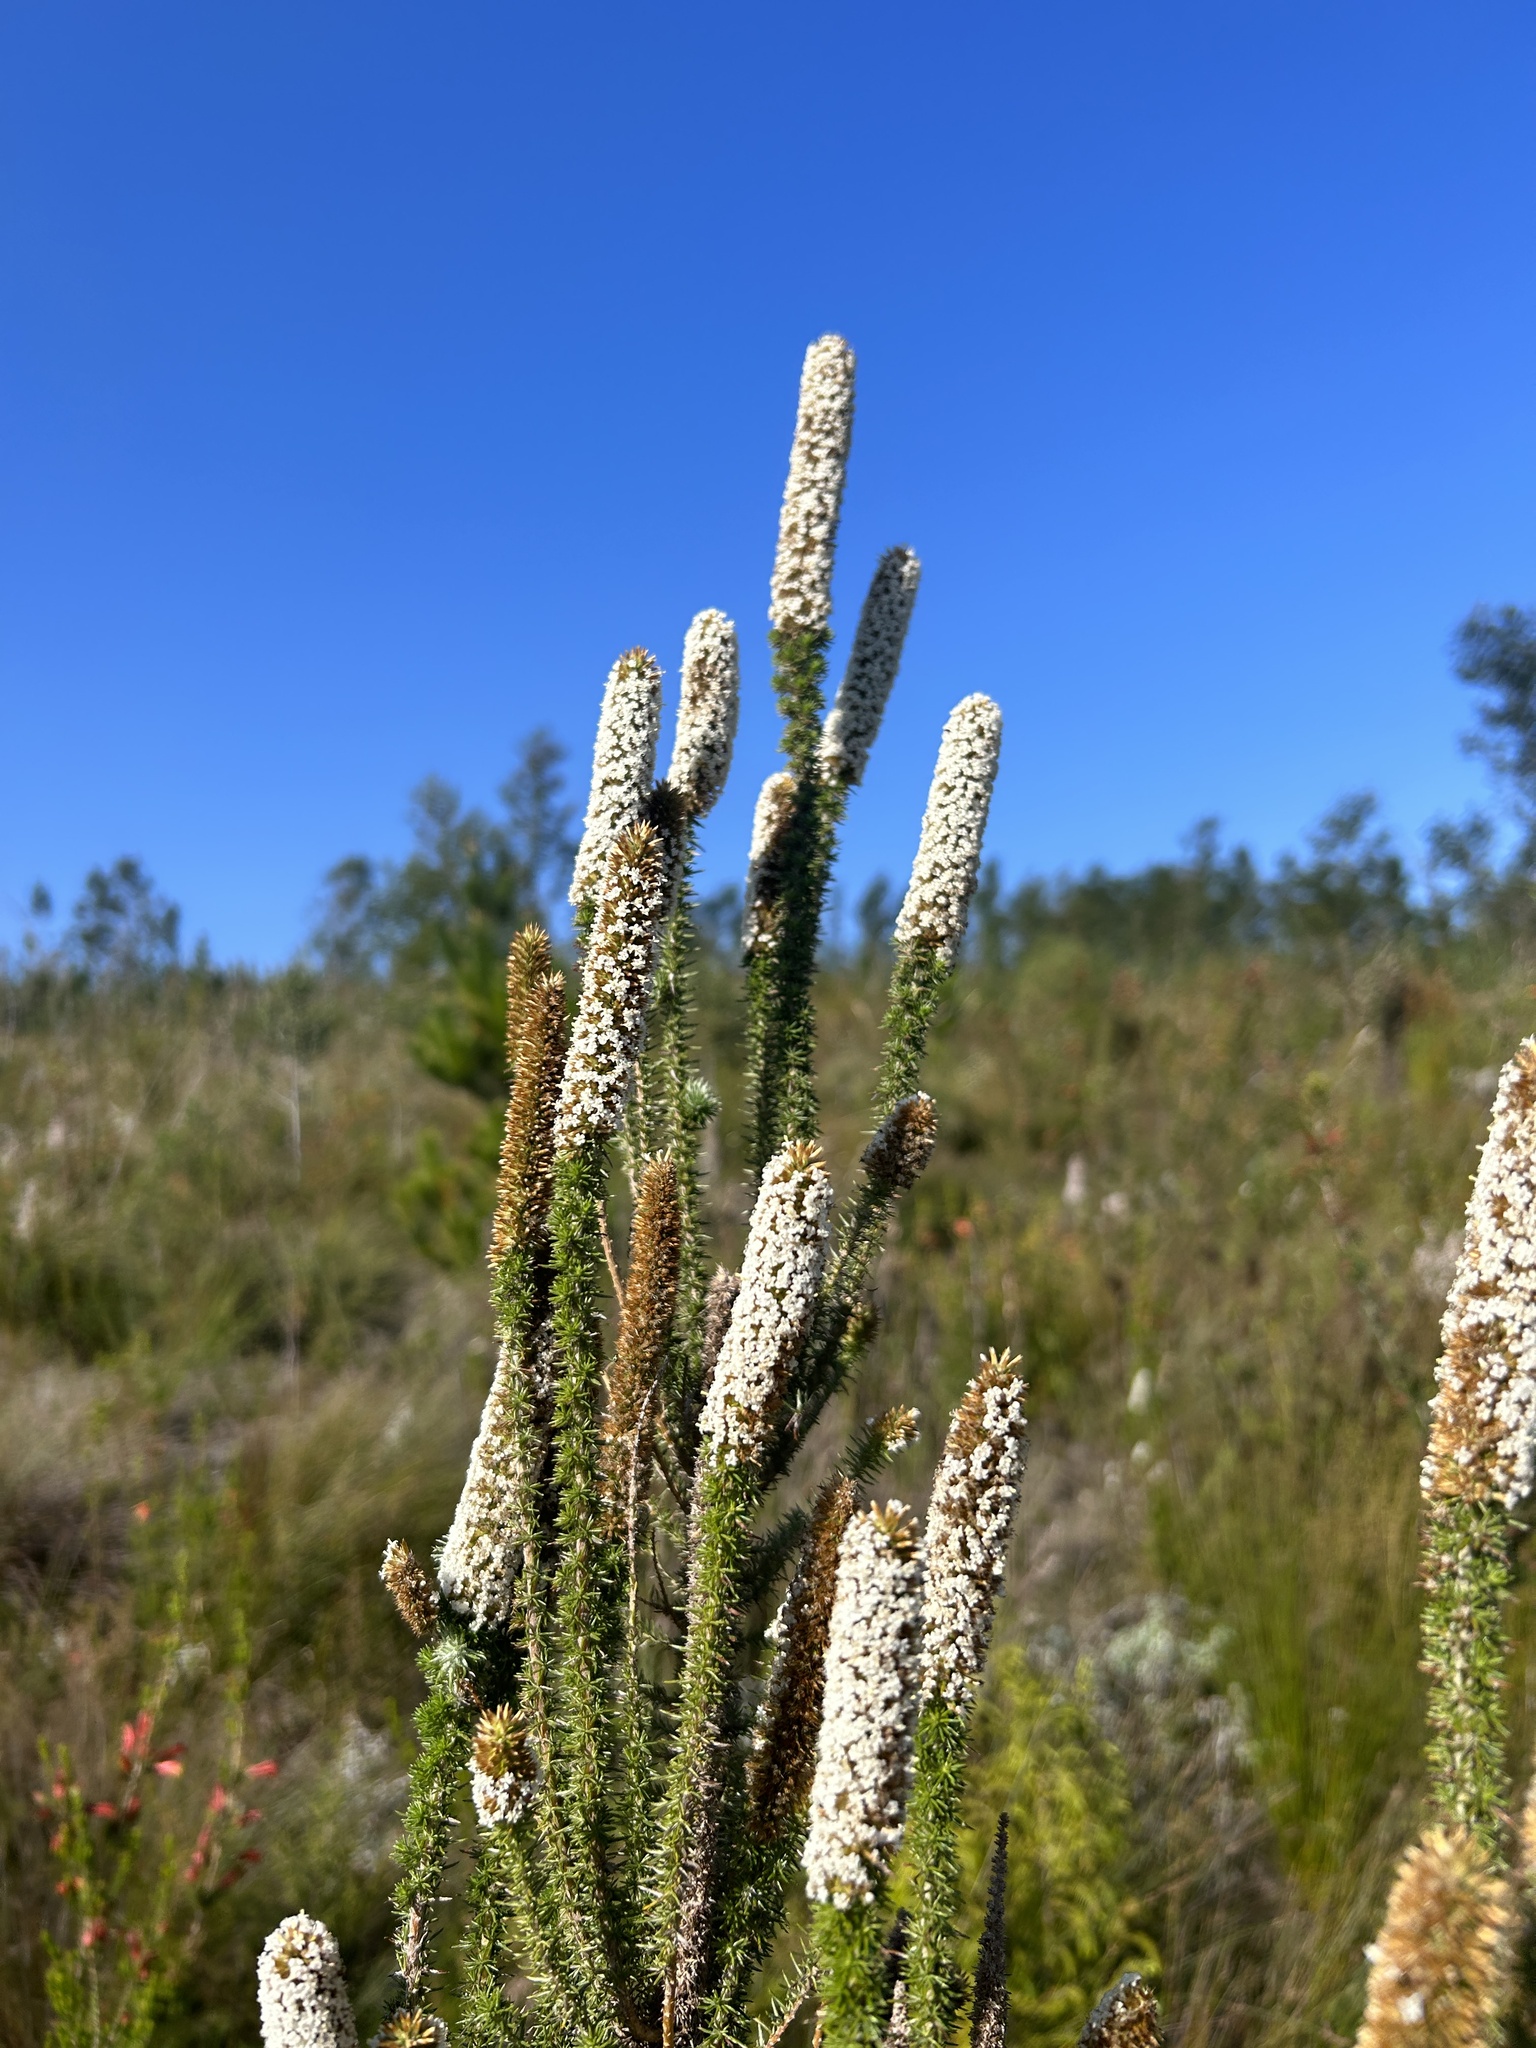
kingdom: Plantae
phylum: Tracheophyta
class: Magnoliopsida
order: Asterales
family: Asteraceae
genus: Stoebe
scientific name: Stoebe alopecuroides
